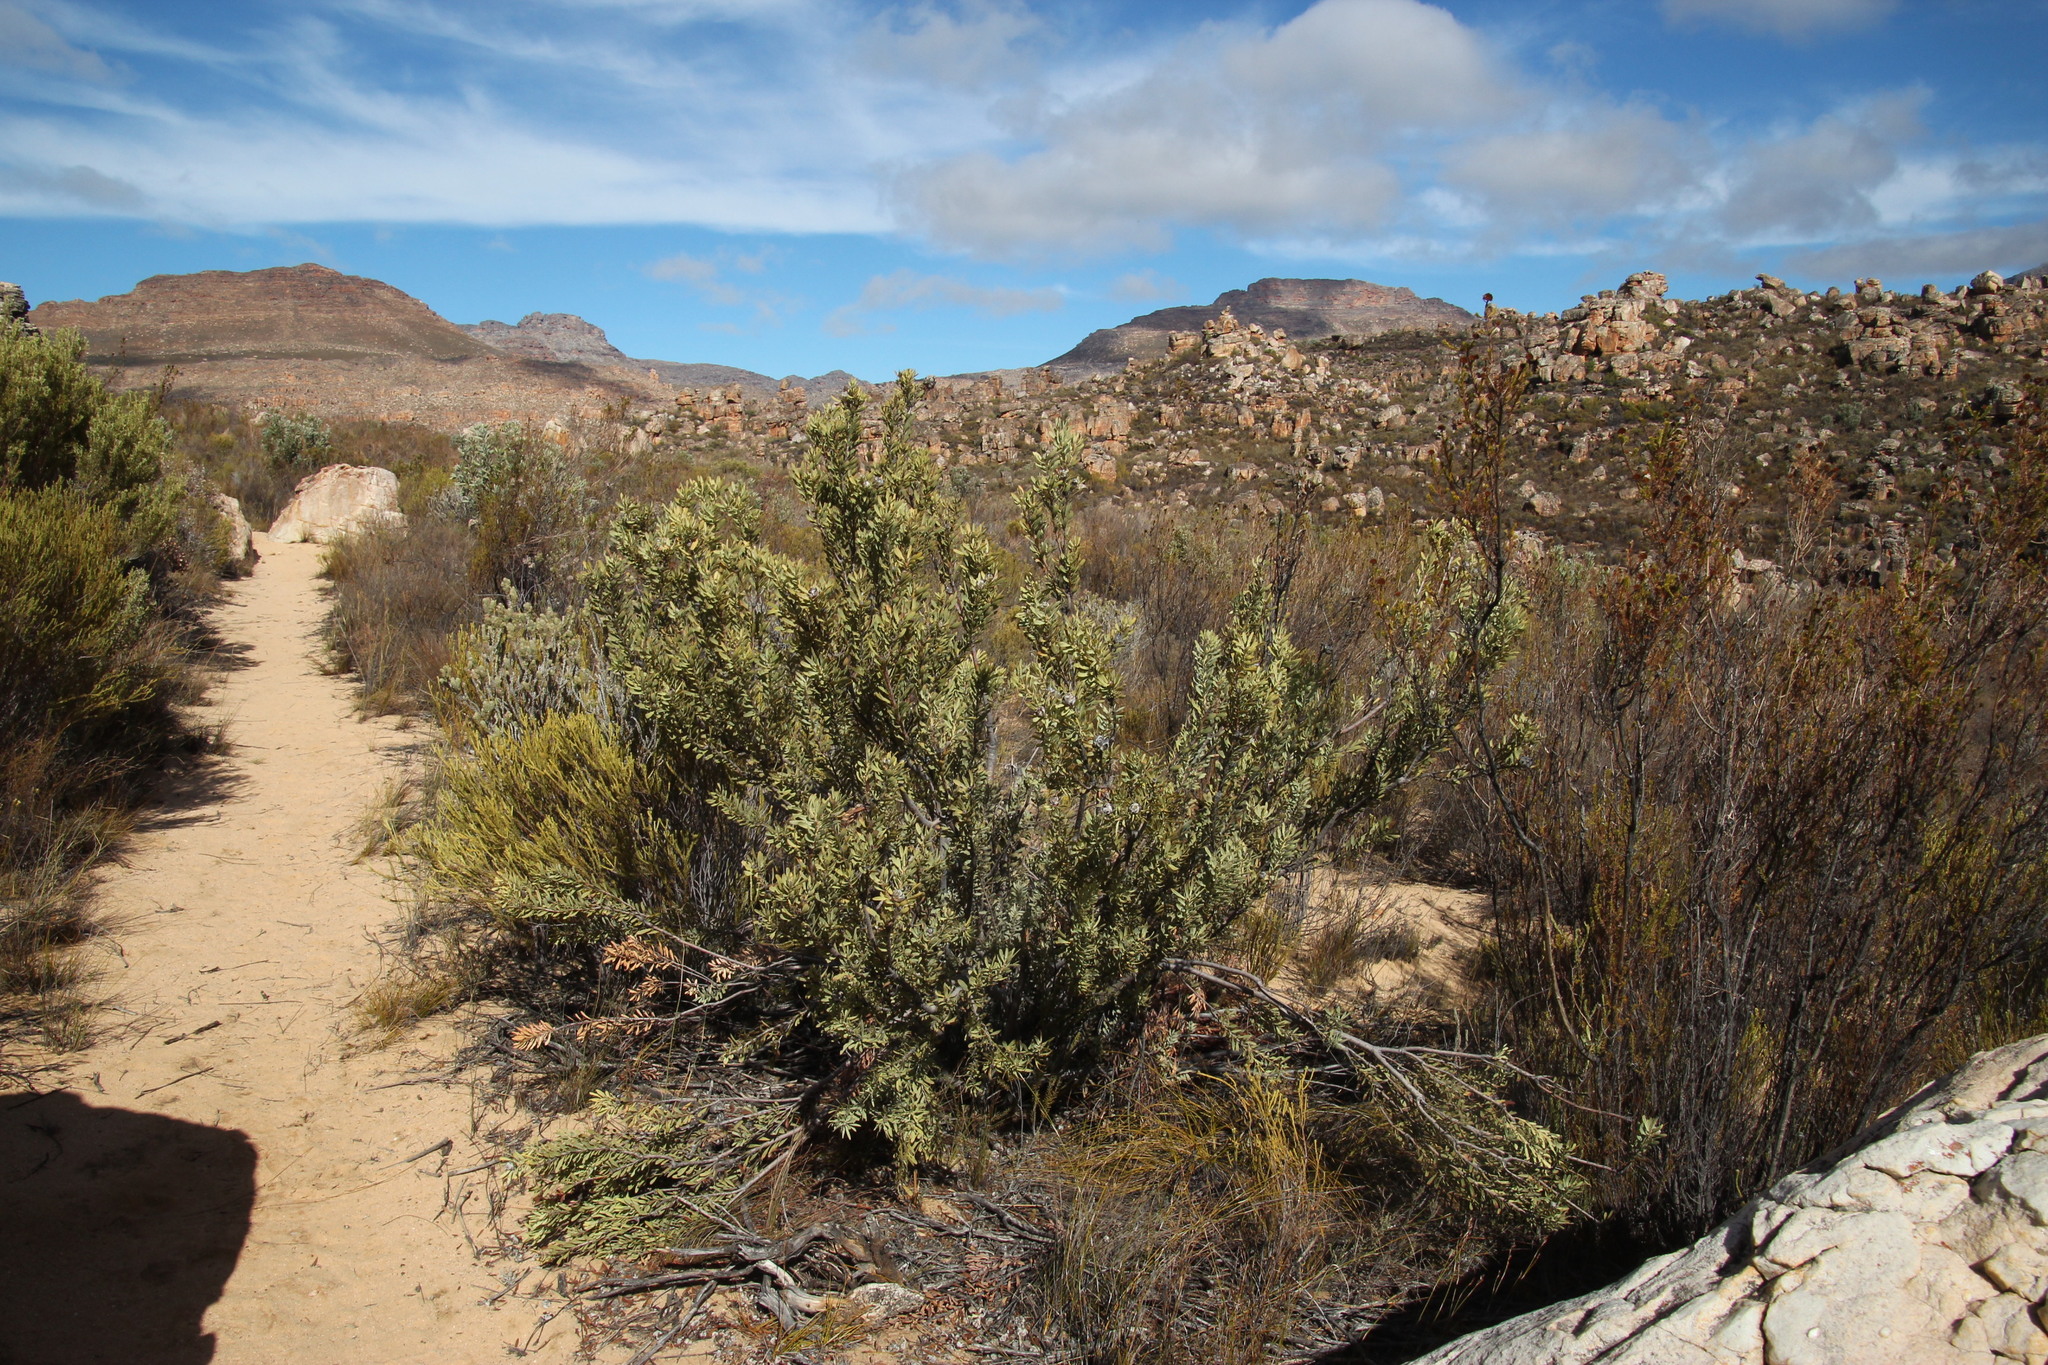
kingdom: Plantae
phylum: Tracheophyta
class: Magnoliopsida
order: Proteales
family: Proteaceae
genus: Leucadendron
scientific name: Leucadendron pubescens
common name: Grey conebush
